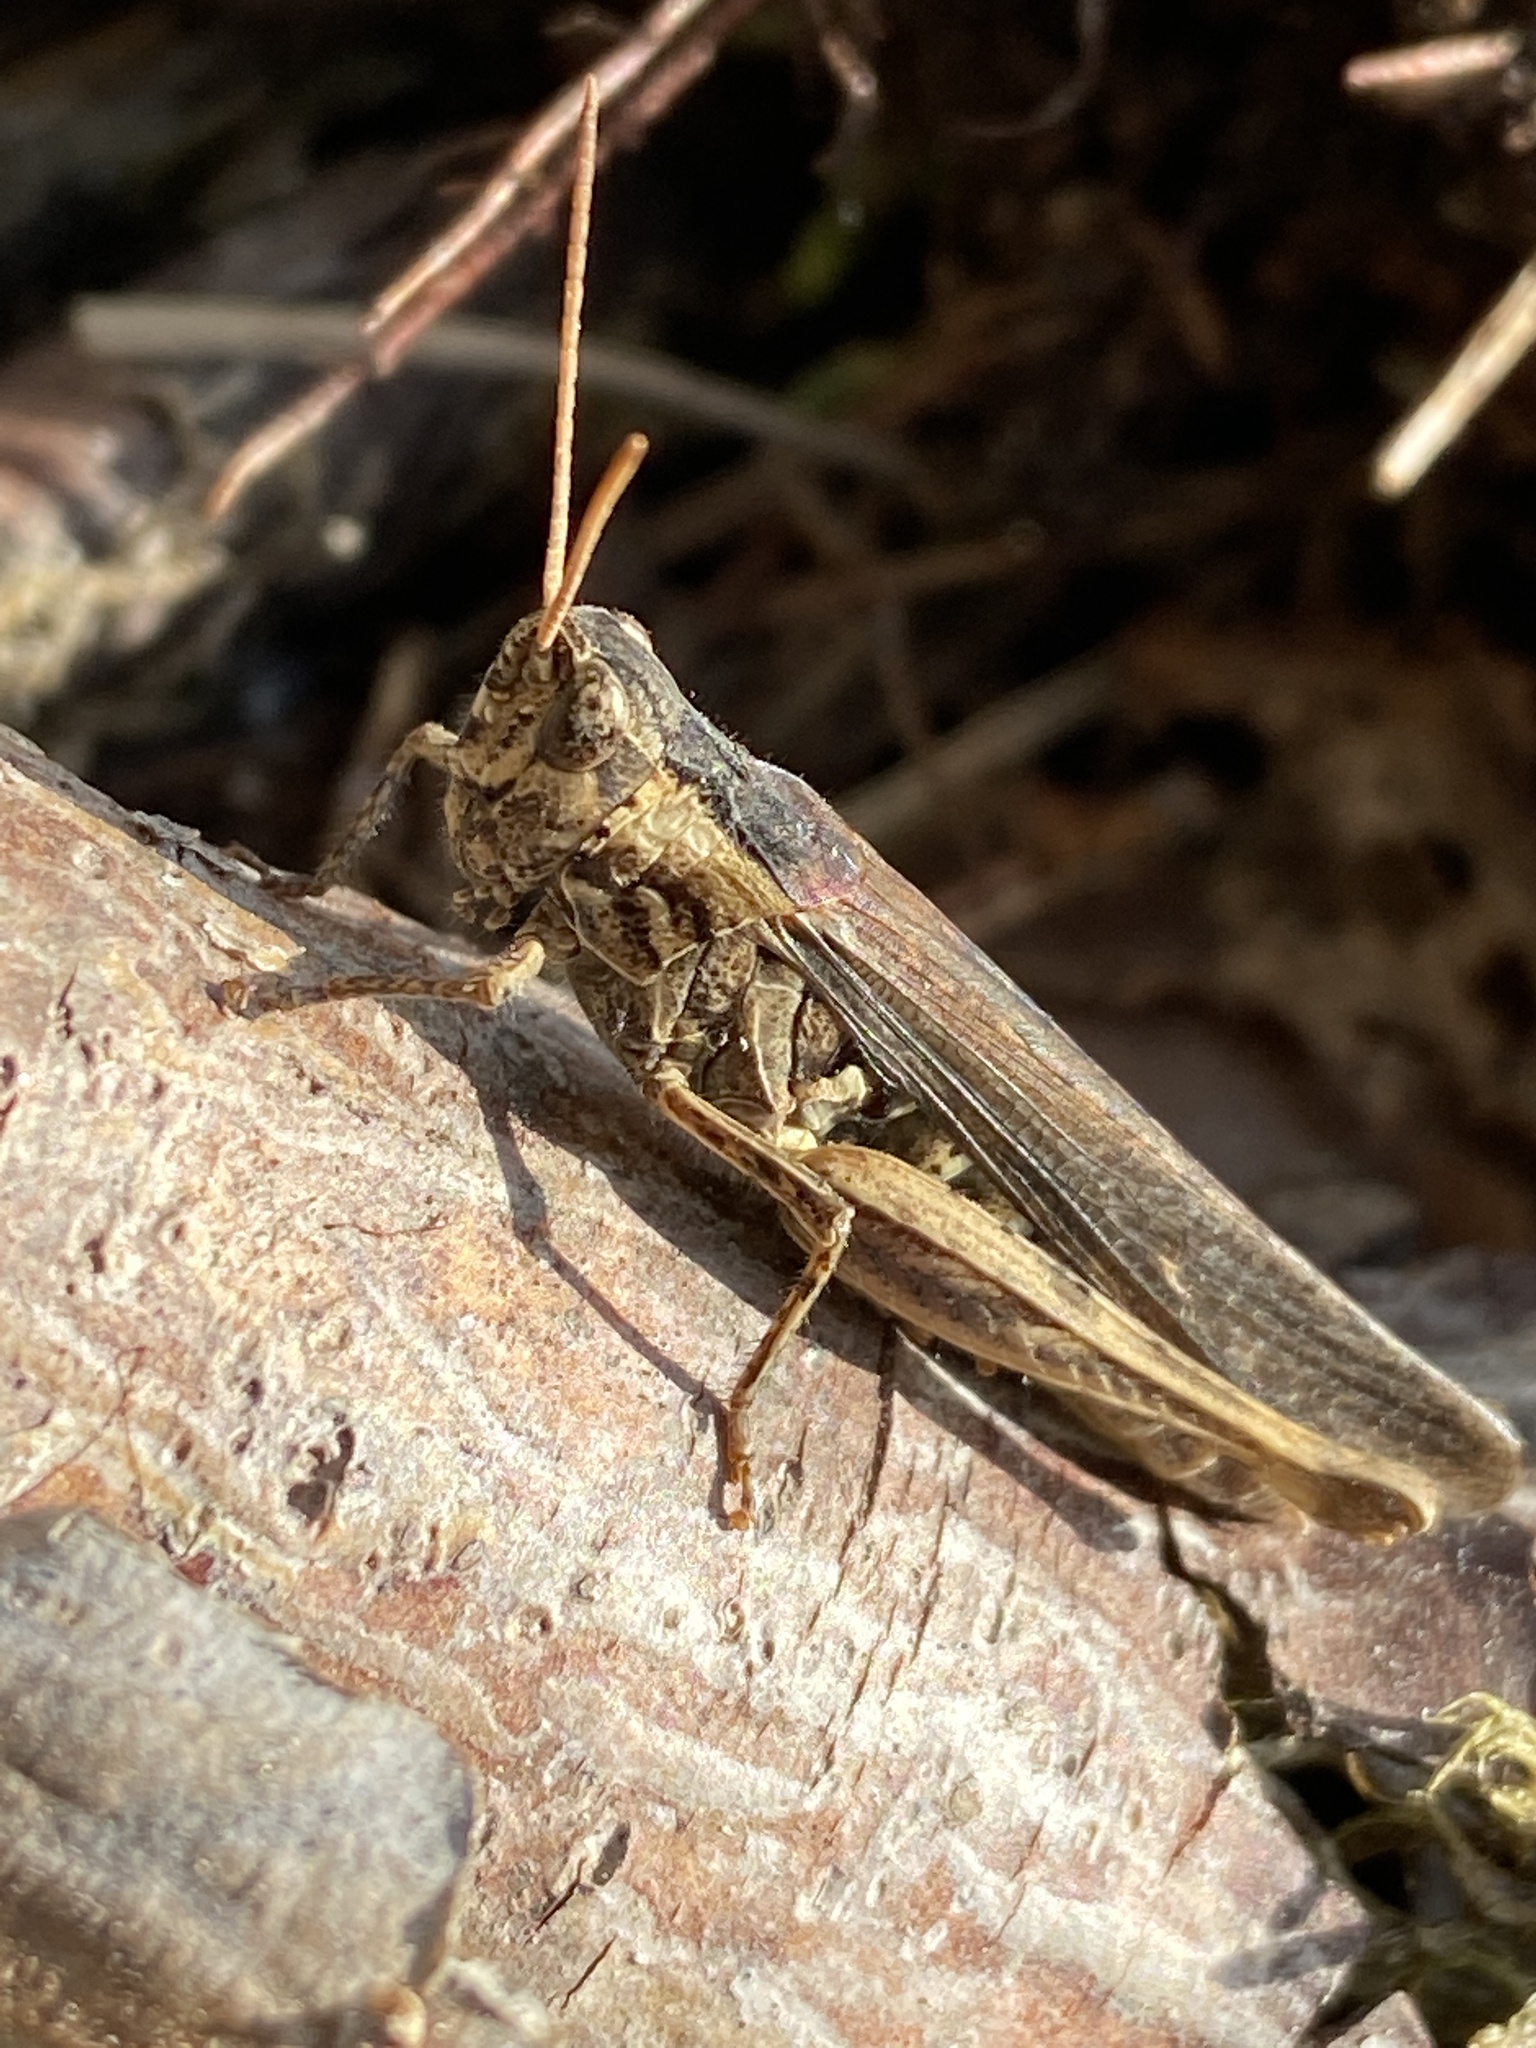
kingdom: Animalia
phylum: Arthropoda
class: Insecta
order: Orthoptera
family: Acrididae
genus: Chorthippus
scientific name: Chorthippus brunneus
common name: Field grasshopper
